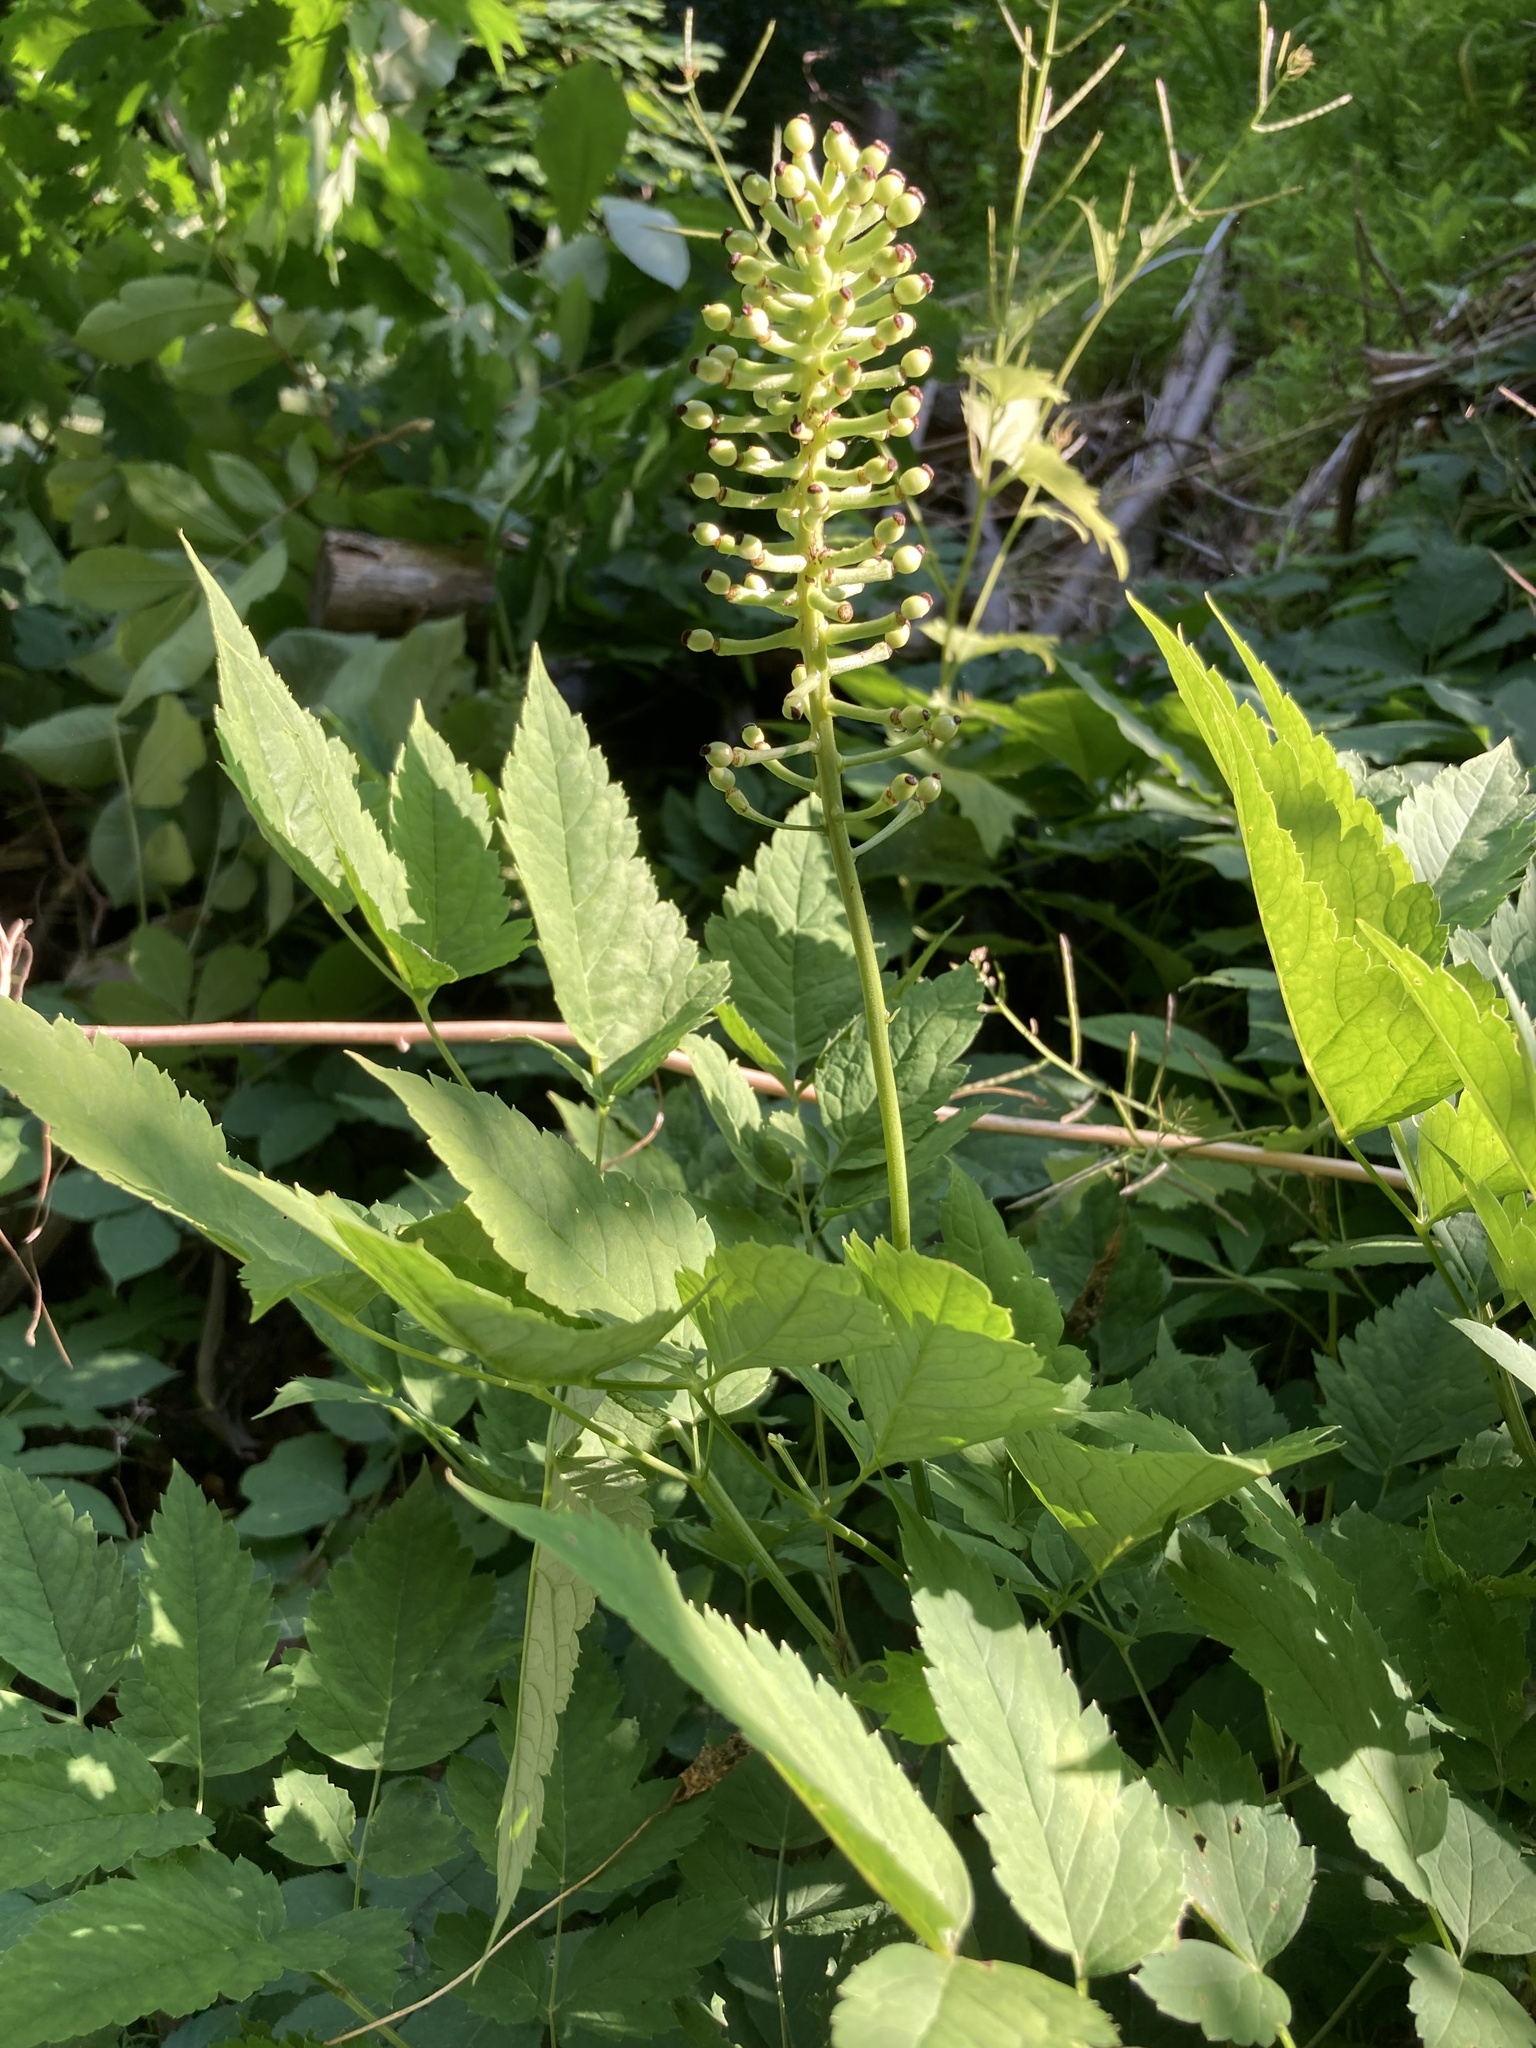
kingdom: Plantae
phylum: Tracheophyta
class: Magnoliopsida
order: Ranunculales
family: Ranunculaceae
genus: Actaea
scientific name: Actaea pachypoda
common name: Doll's-eyes
